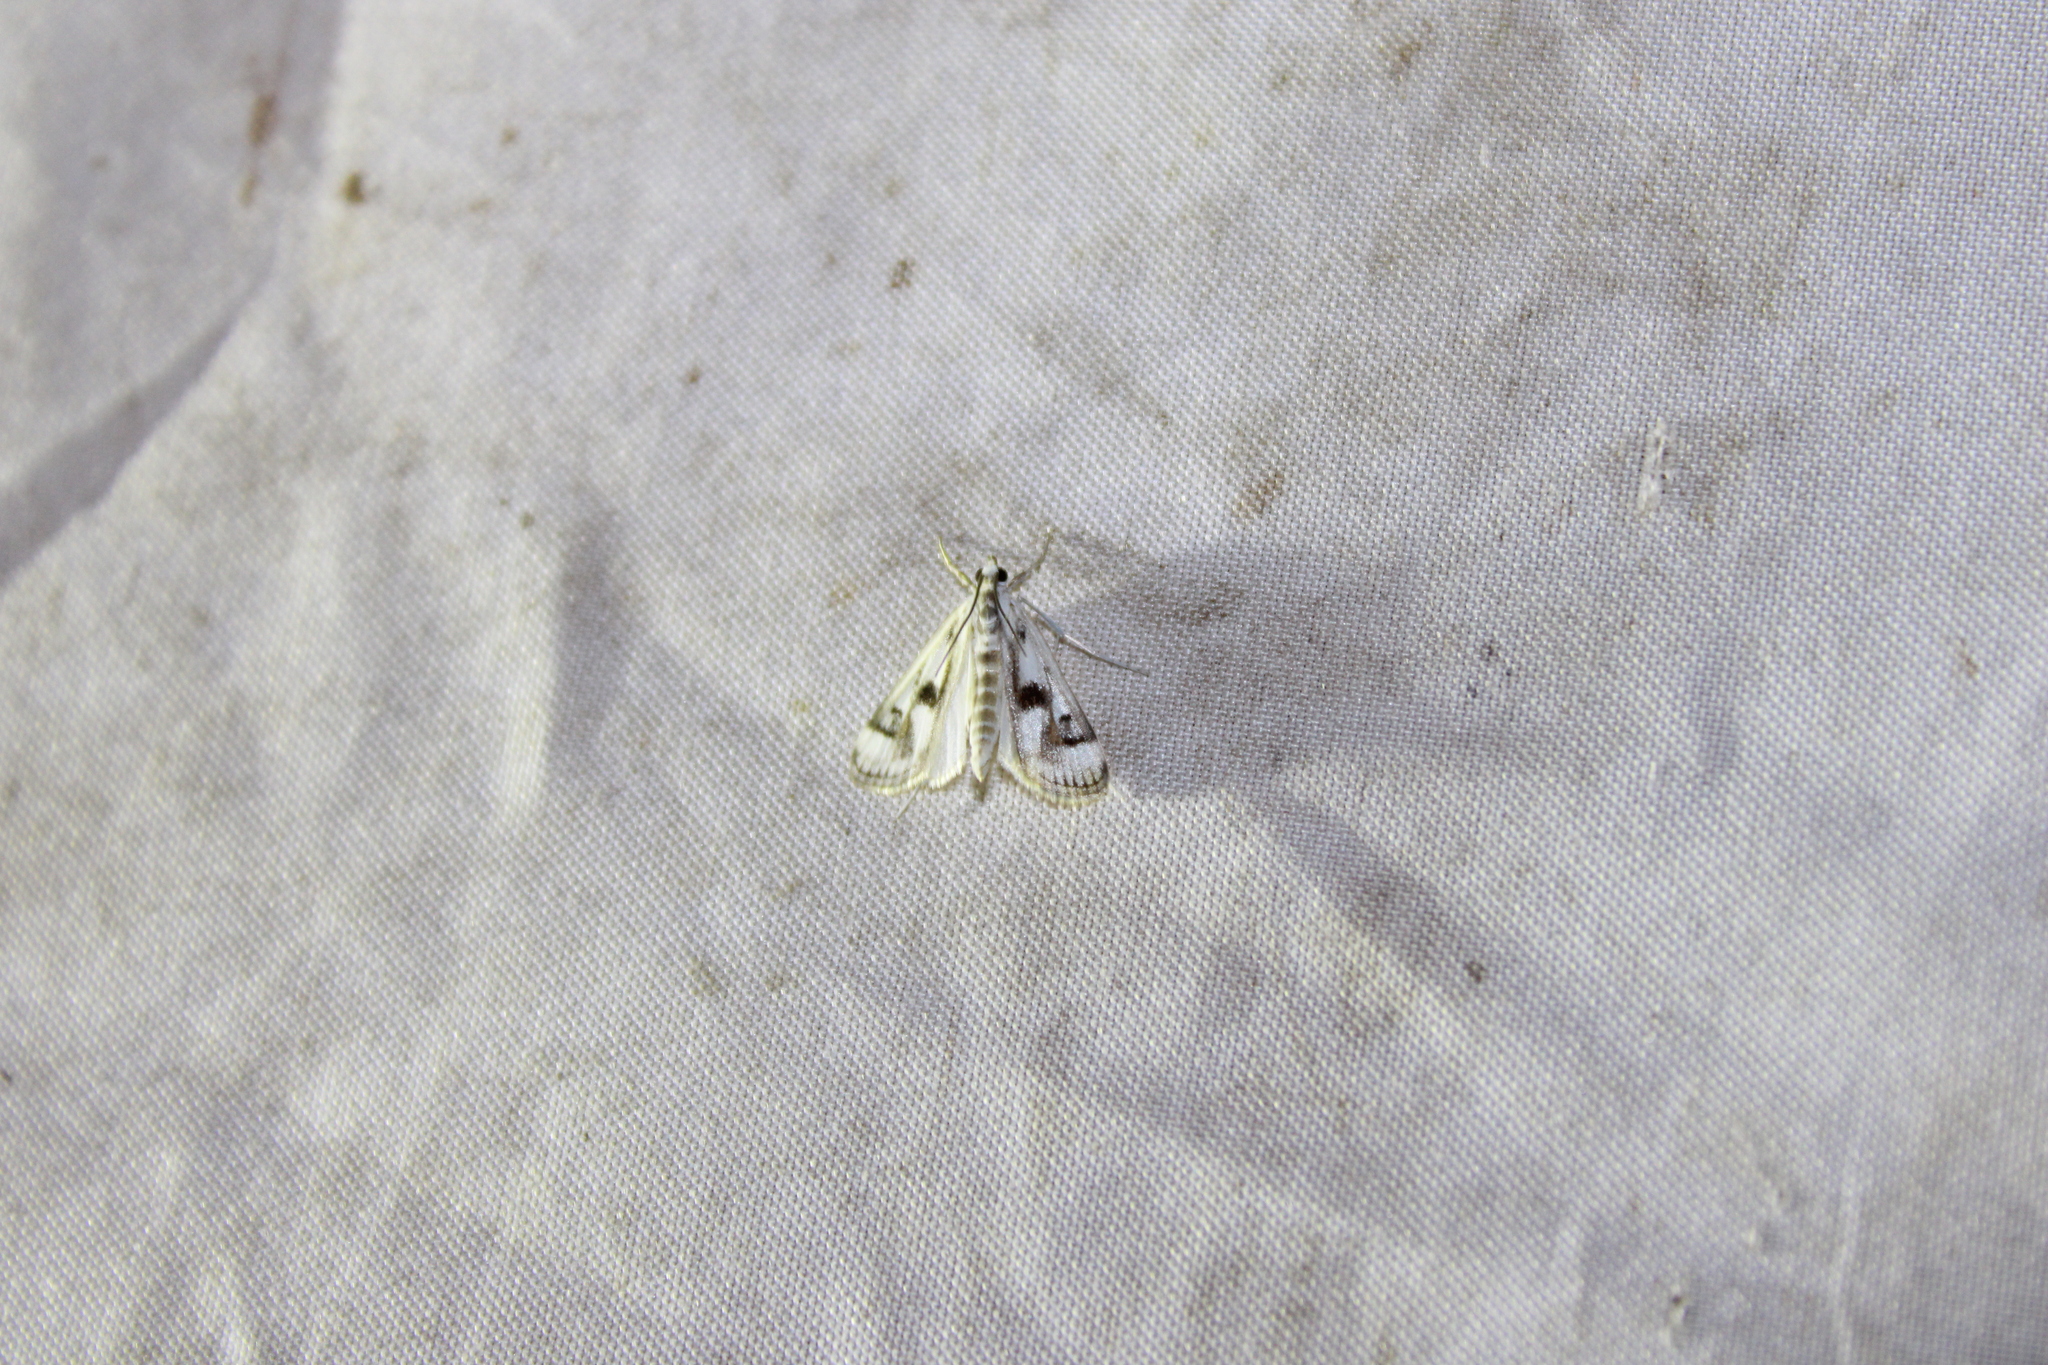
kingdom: Animalia
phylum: Arthropoda
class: Insecta
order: Lepidoptera
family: Crambidae
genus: Parapoynx
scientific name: Parapoynx maculalis
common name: Polymorphic pondweed moth
